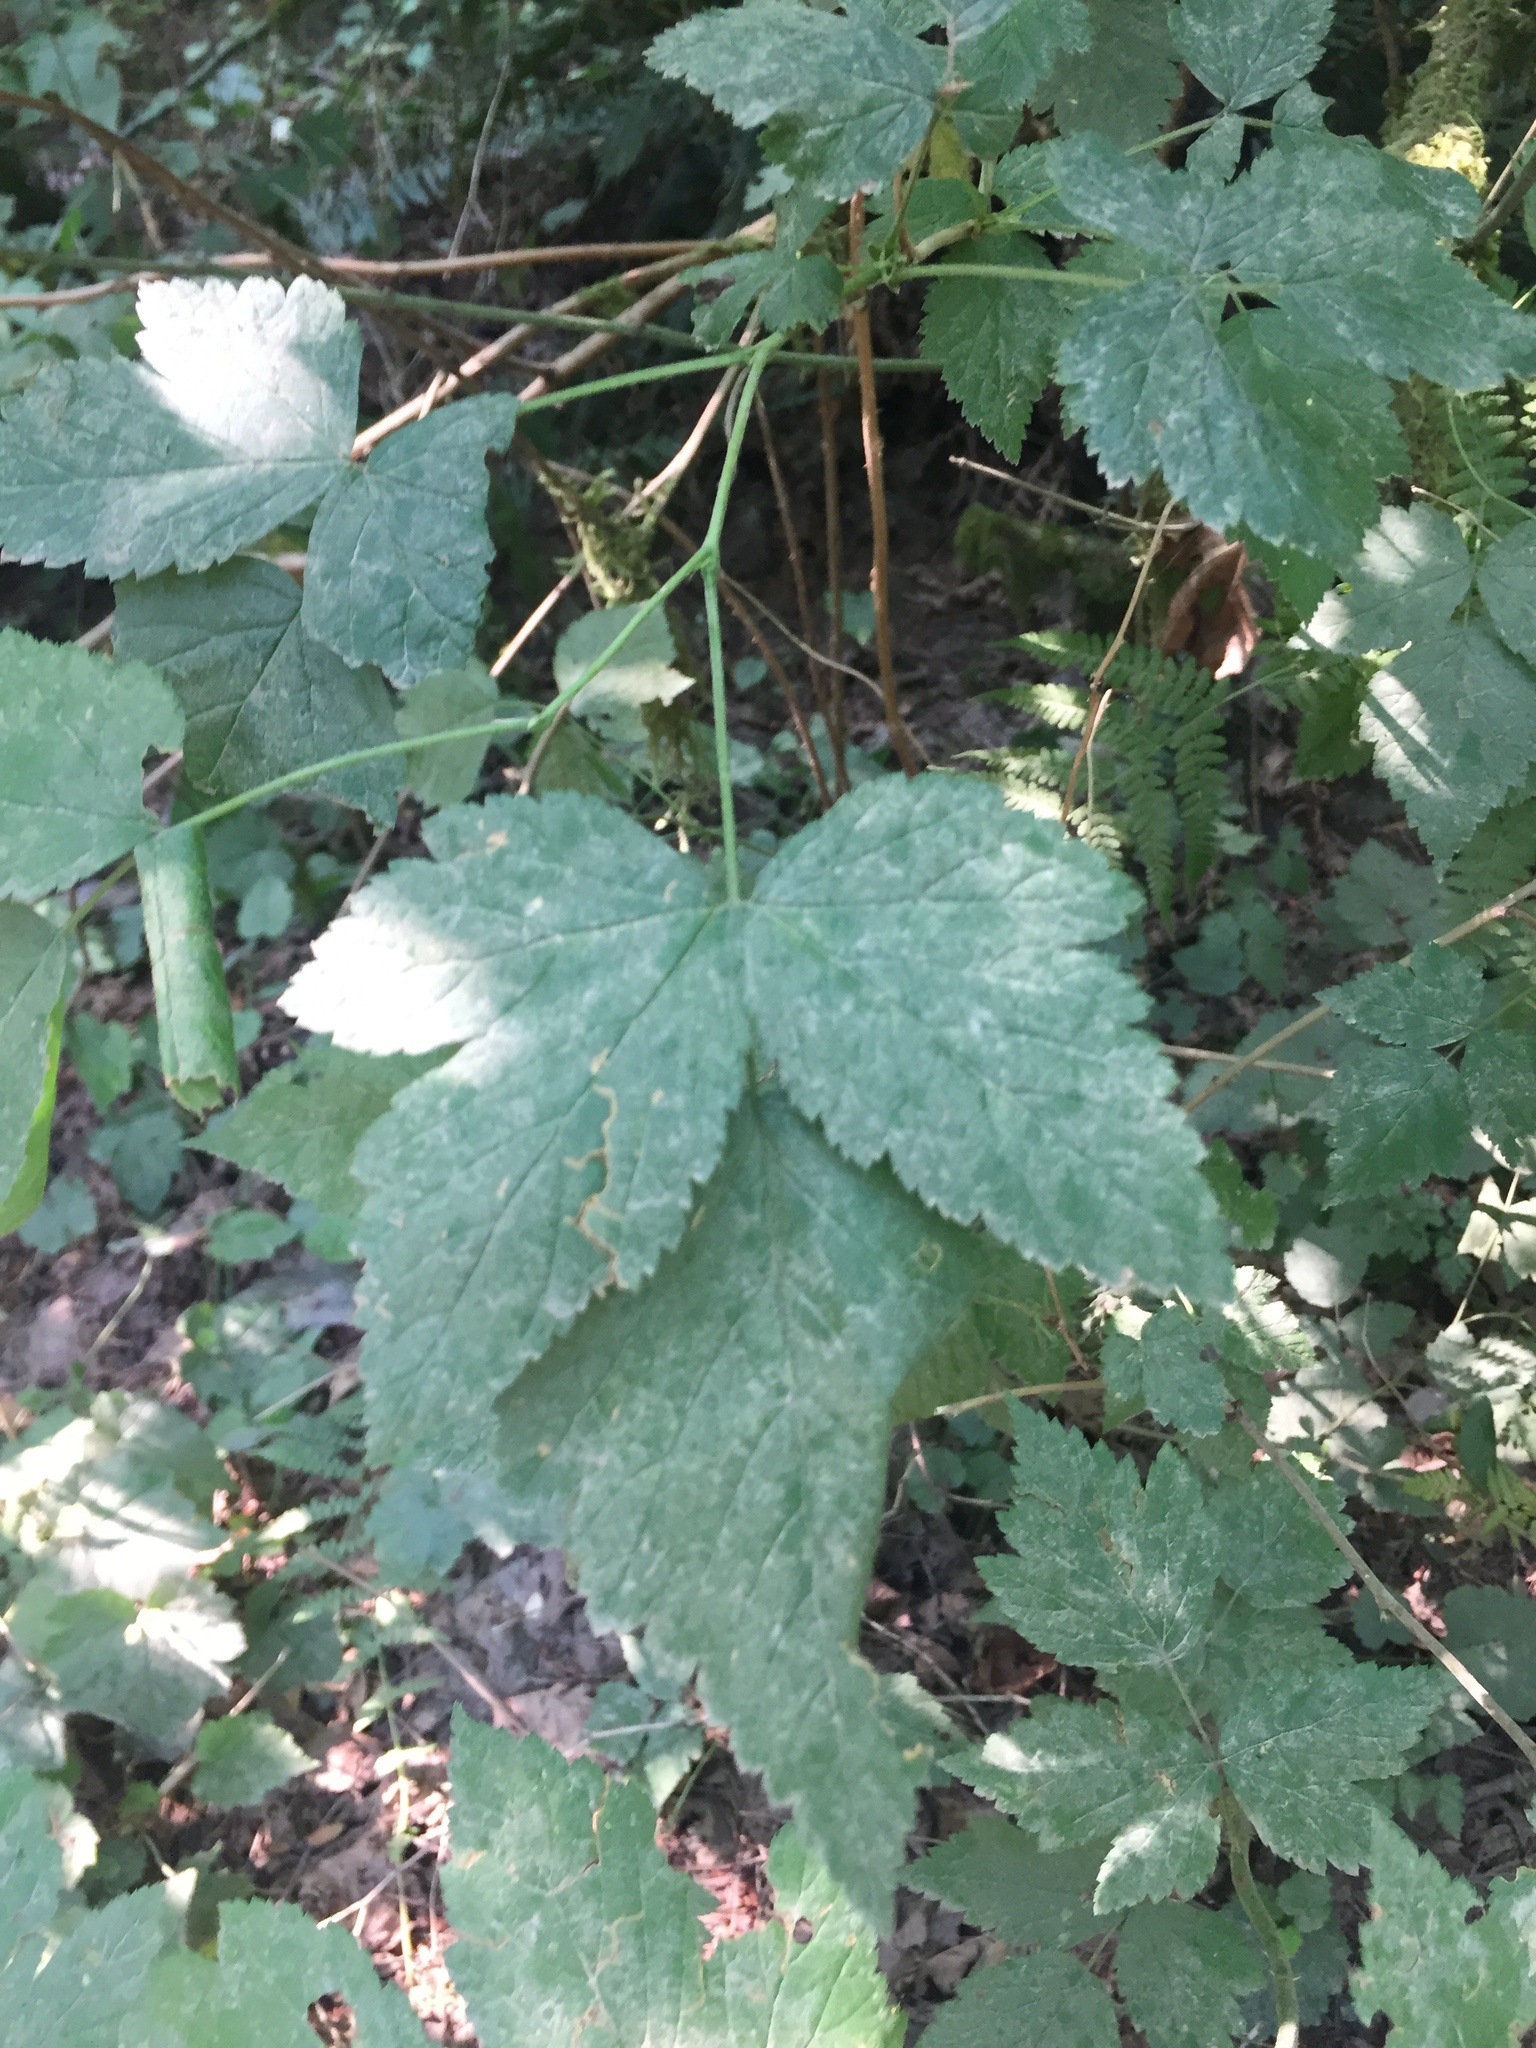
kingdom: Plantae
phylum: Tracheophyta
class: Magnoliopsida
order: Rosales
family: Rosaceae
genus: Rubus
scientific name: Rubus spectabilis
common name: Salmonberry
